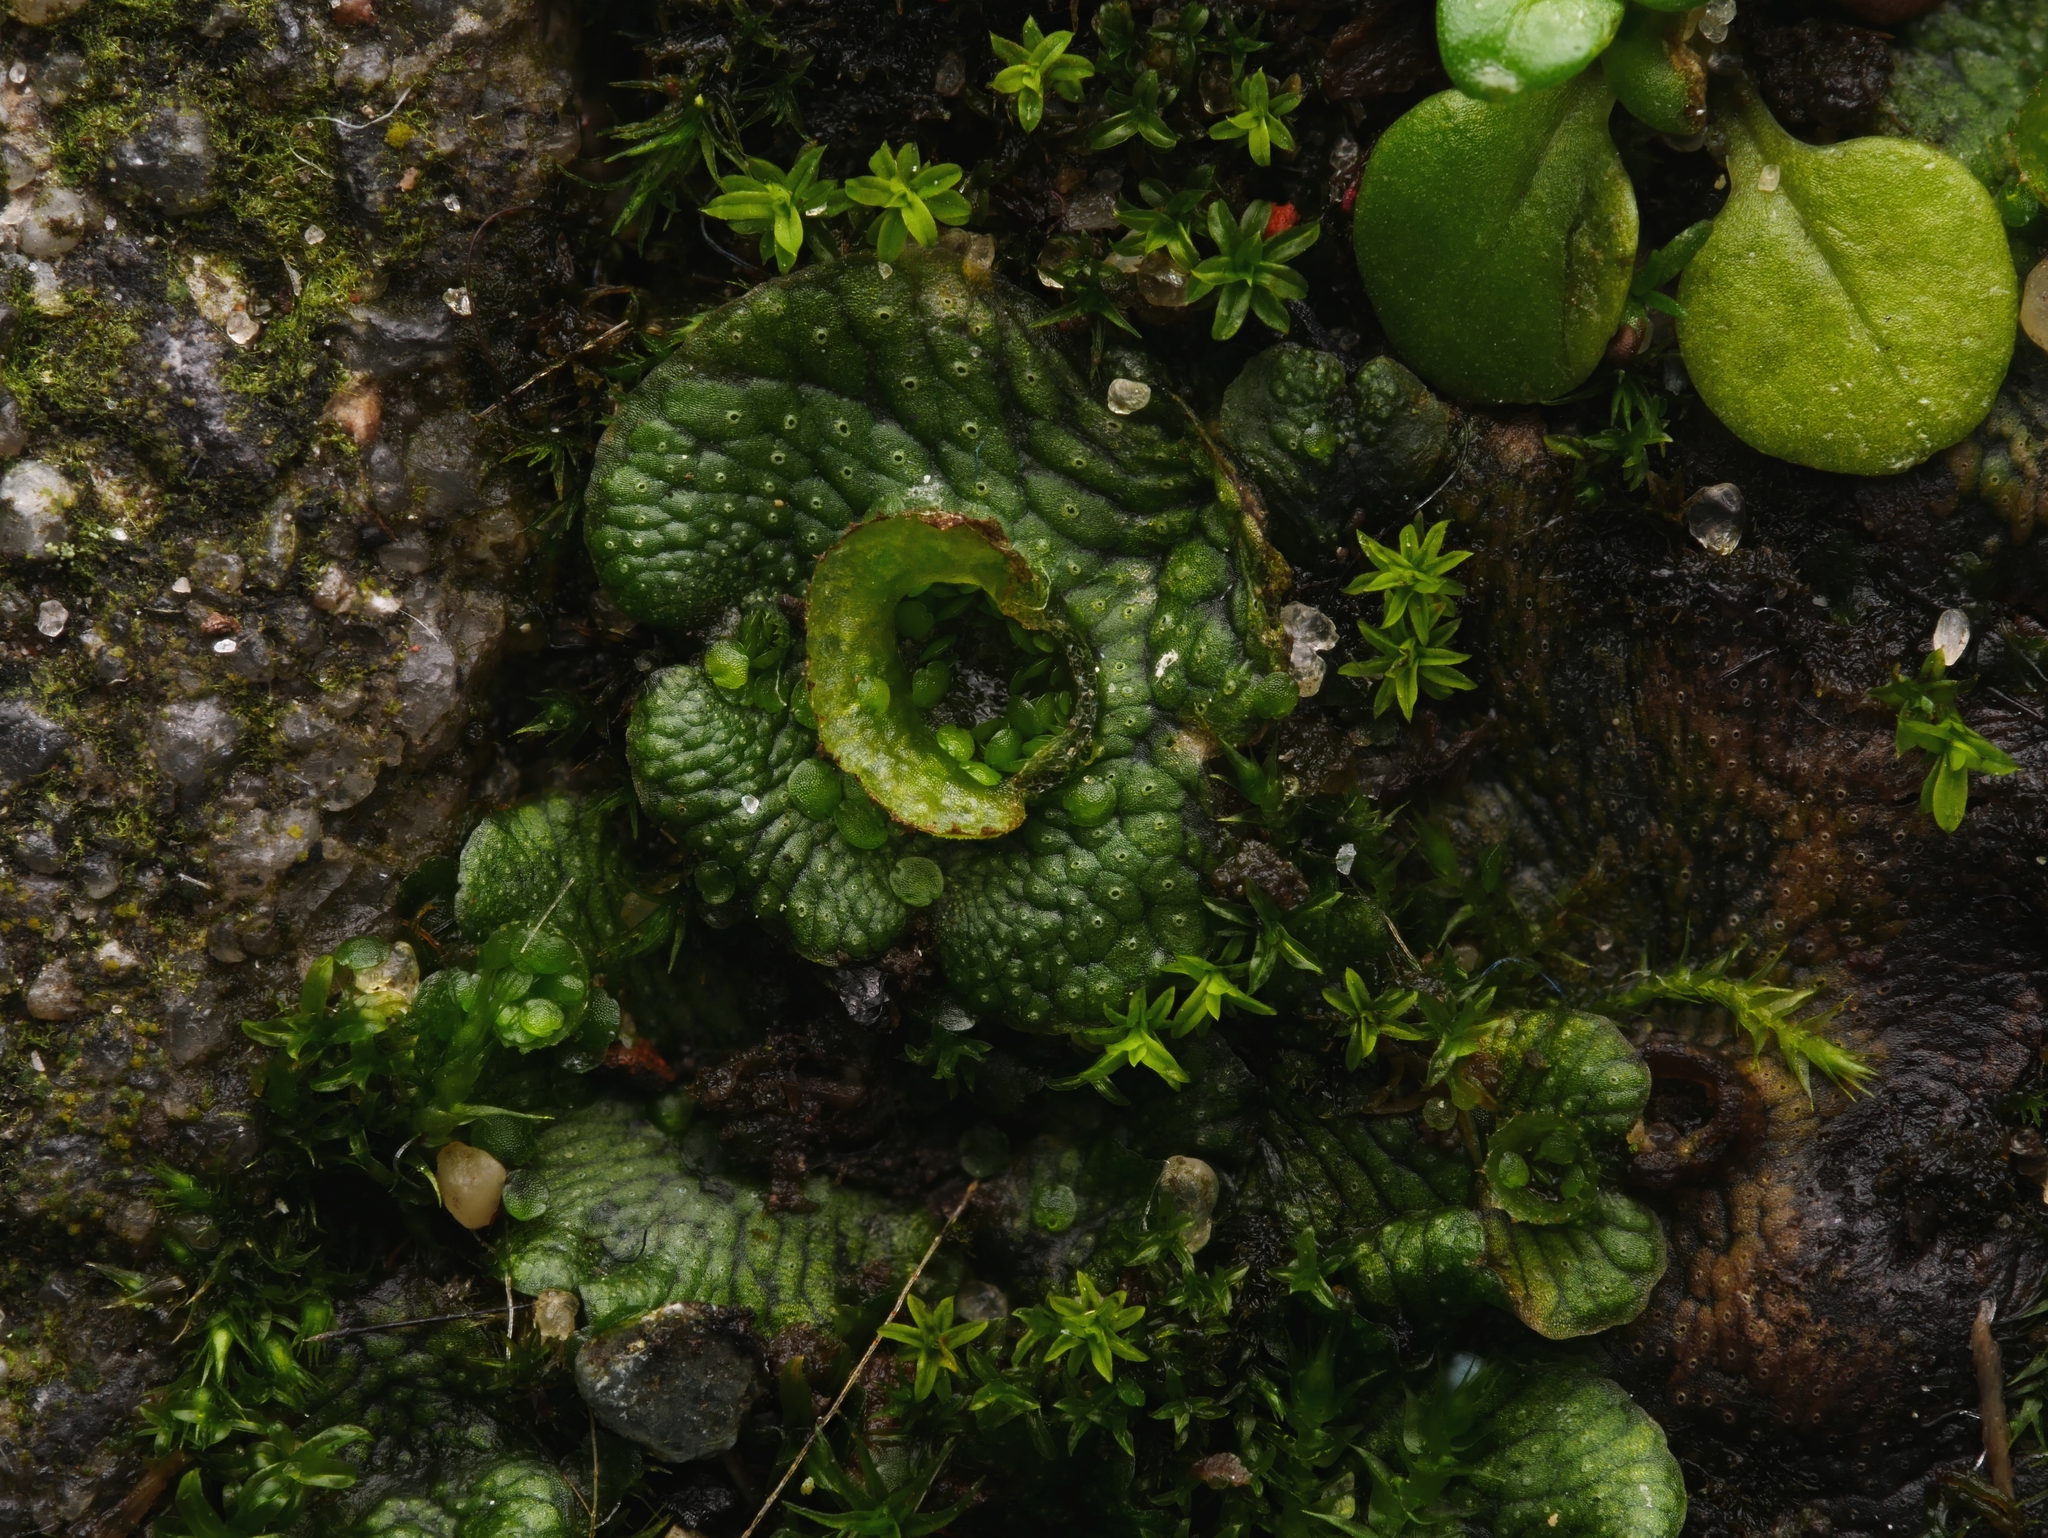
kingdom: Plantae
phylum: Marchantiophyta
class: Marchantiopsida
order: Marchantiales
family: Marchantiaceae
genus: Marchantia
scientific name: Marchantia polymorpha
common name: Common liverwort
